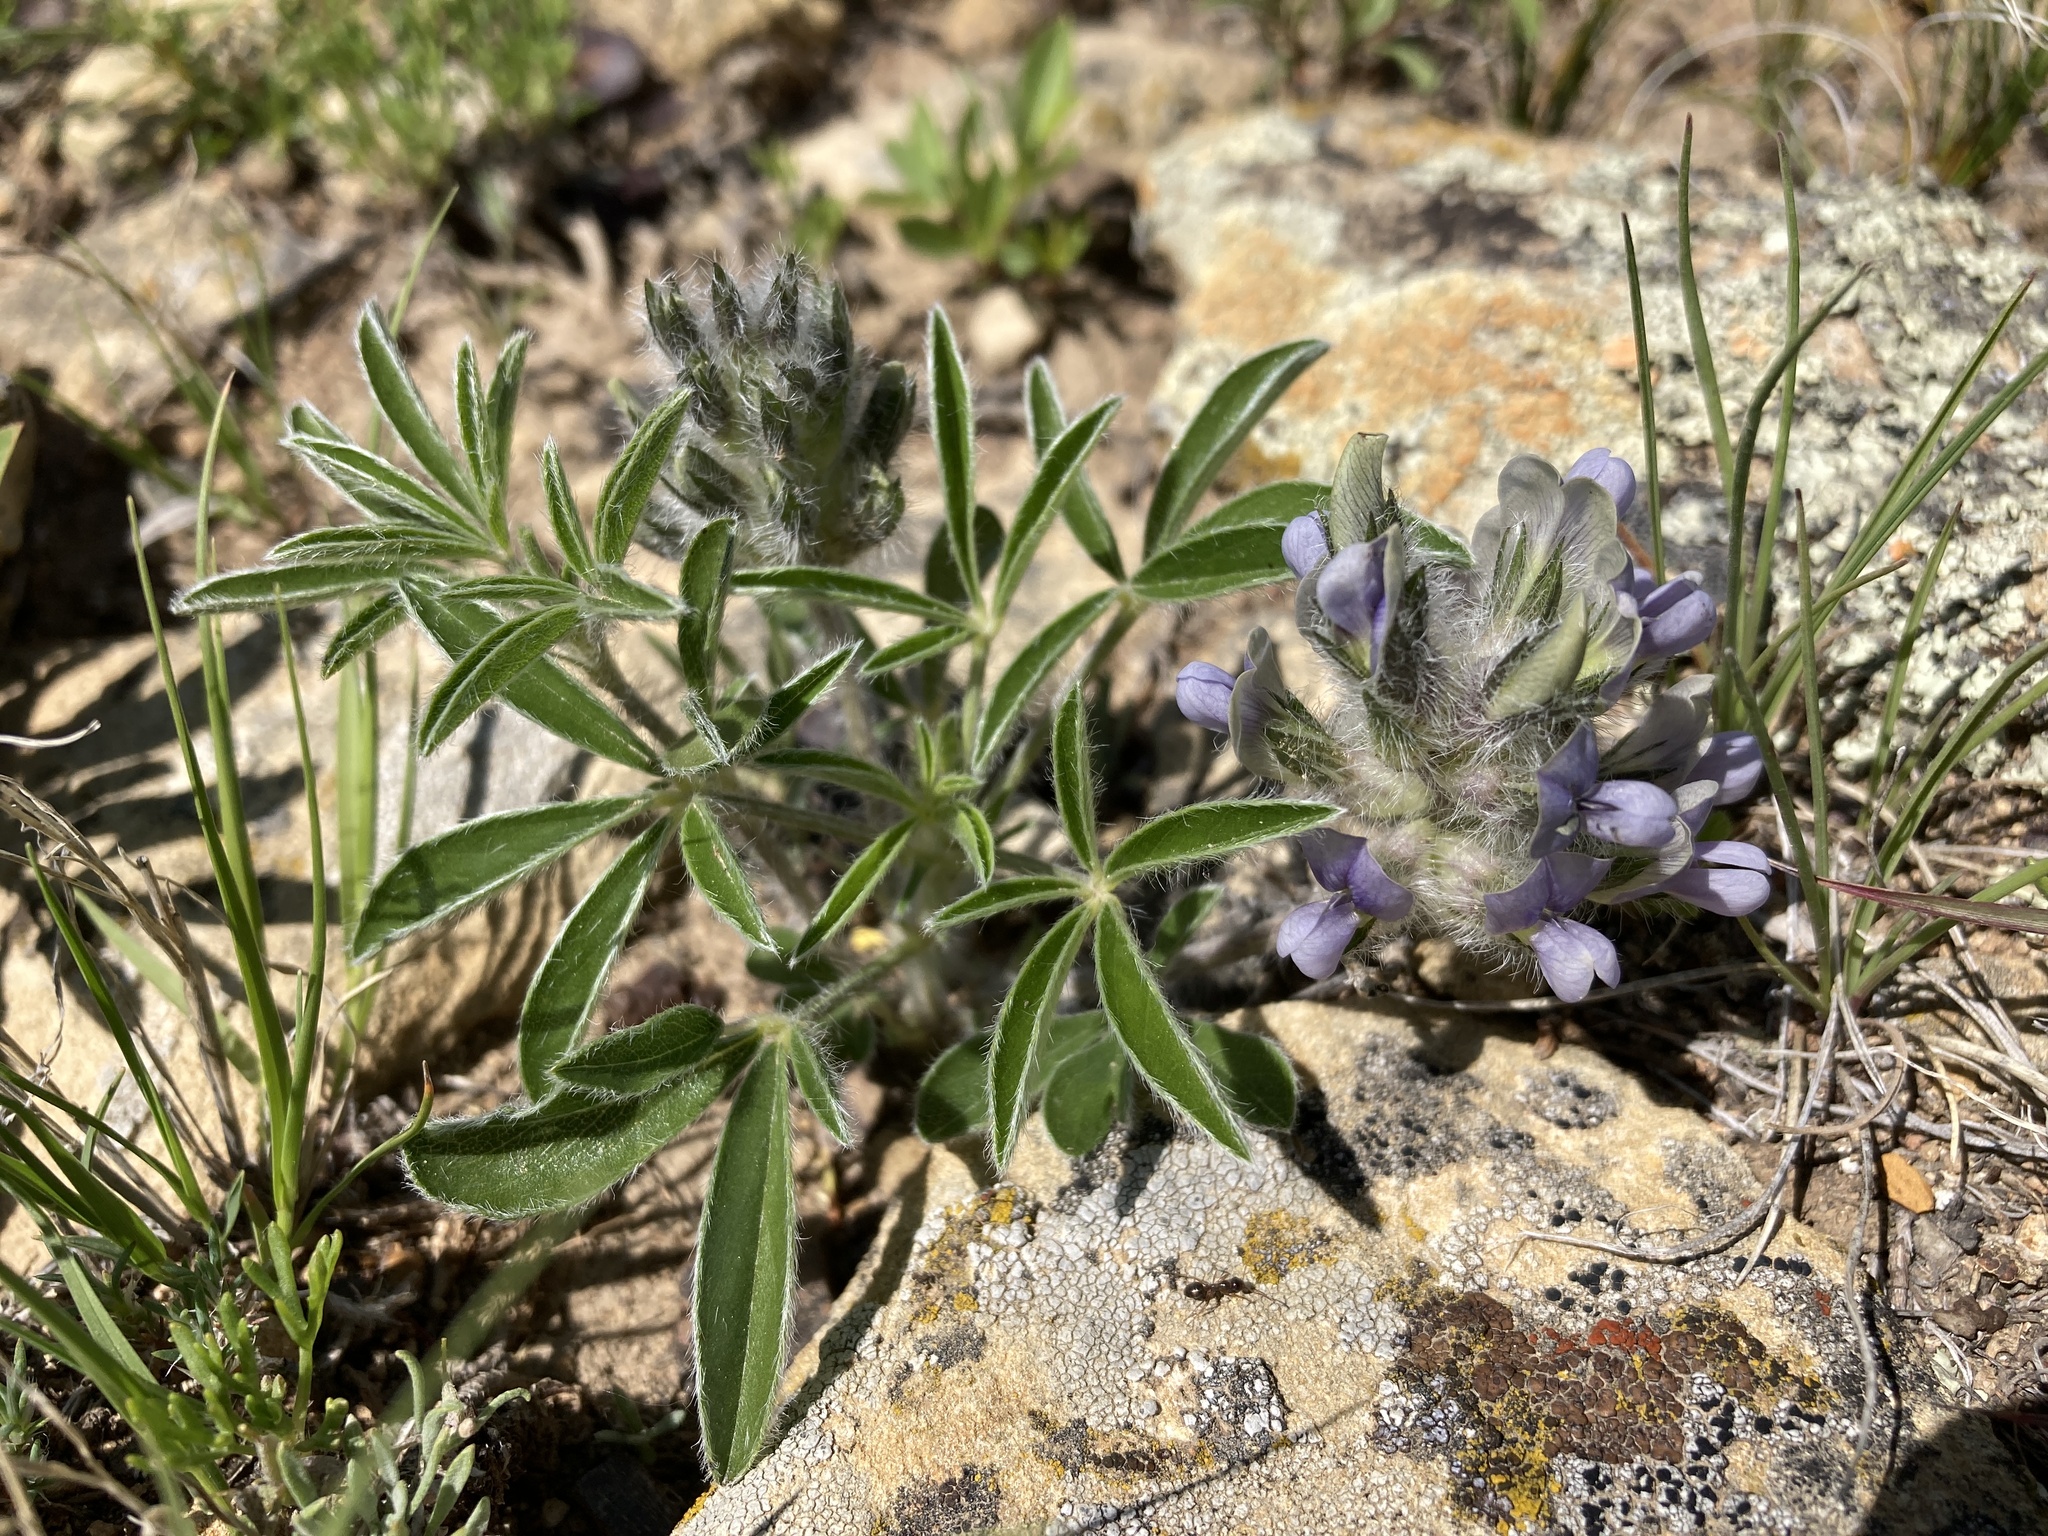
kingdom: Plantae
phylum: Tracheophyta
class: Magnoliopsida
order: Fabales
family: Fabaceae
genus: Pediomelum
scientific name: Pediomelum esculentum
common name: Indian-turnip
